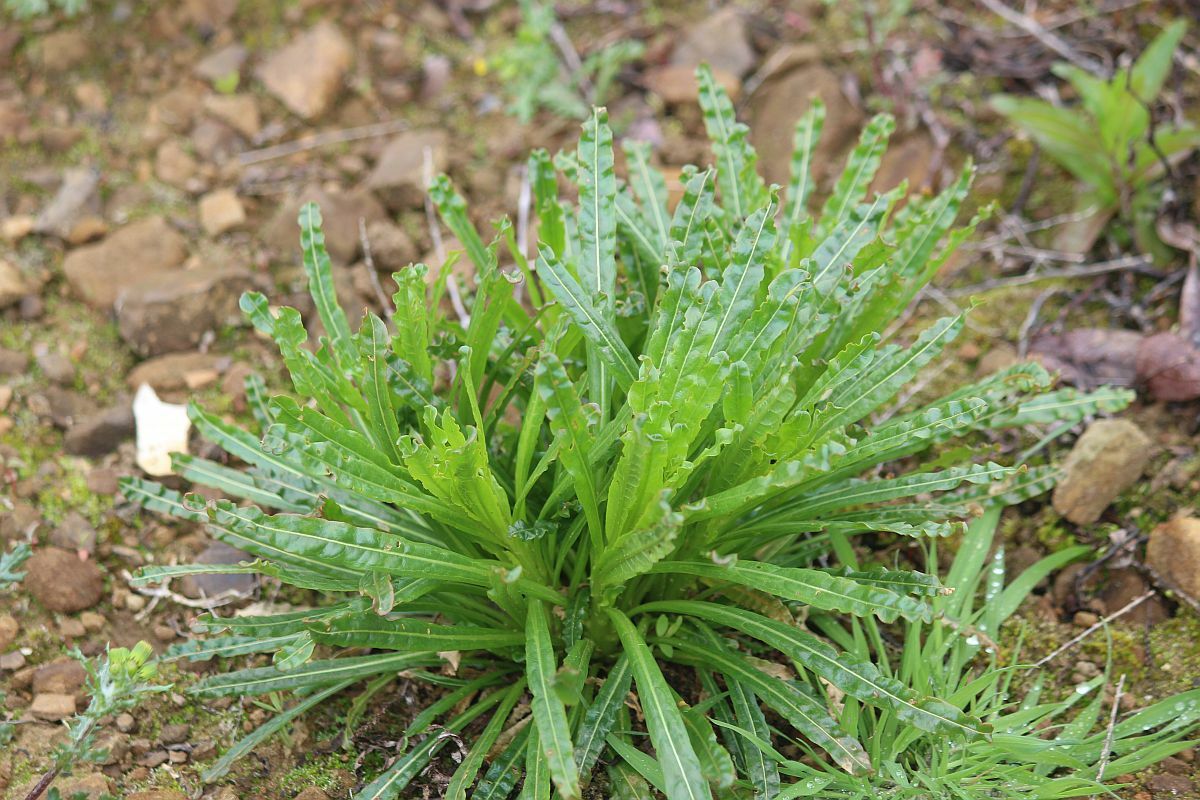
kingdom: Plantae
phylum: Tracheophyta
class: Magnoliopsida
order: Brassicales
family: Resedaceae
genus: Reseda
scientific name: Reseda luteola
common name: Weld
